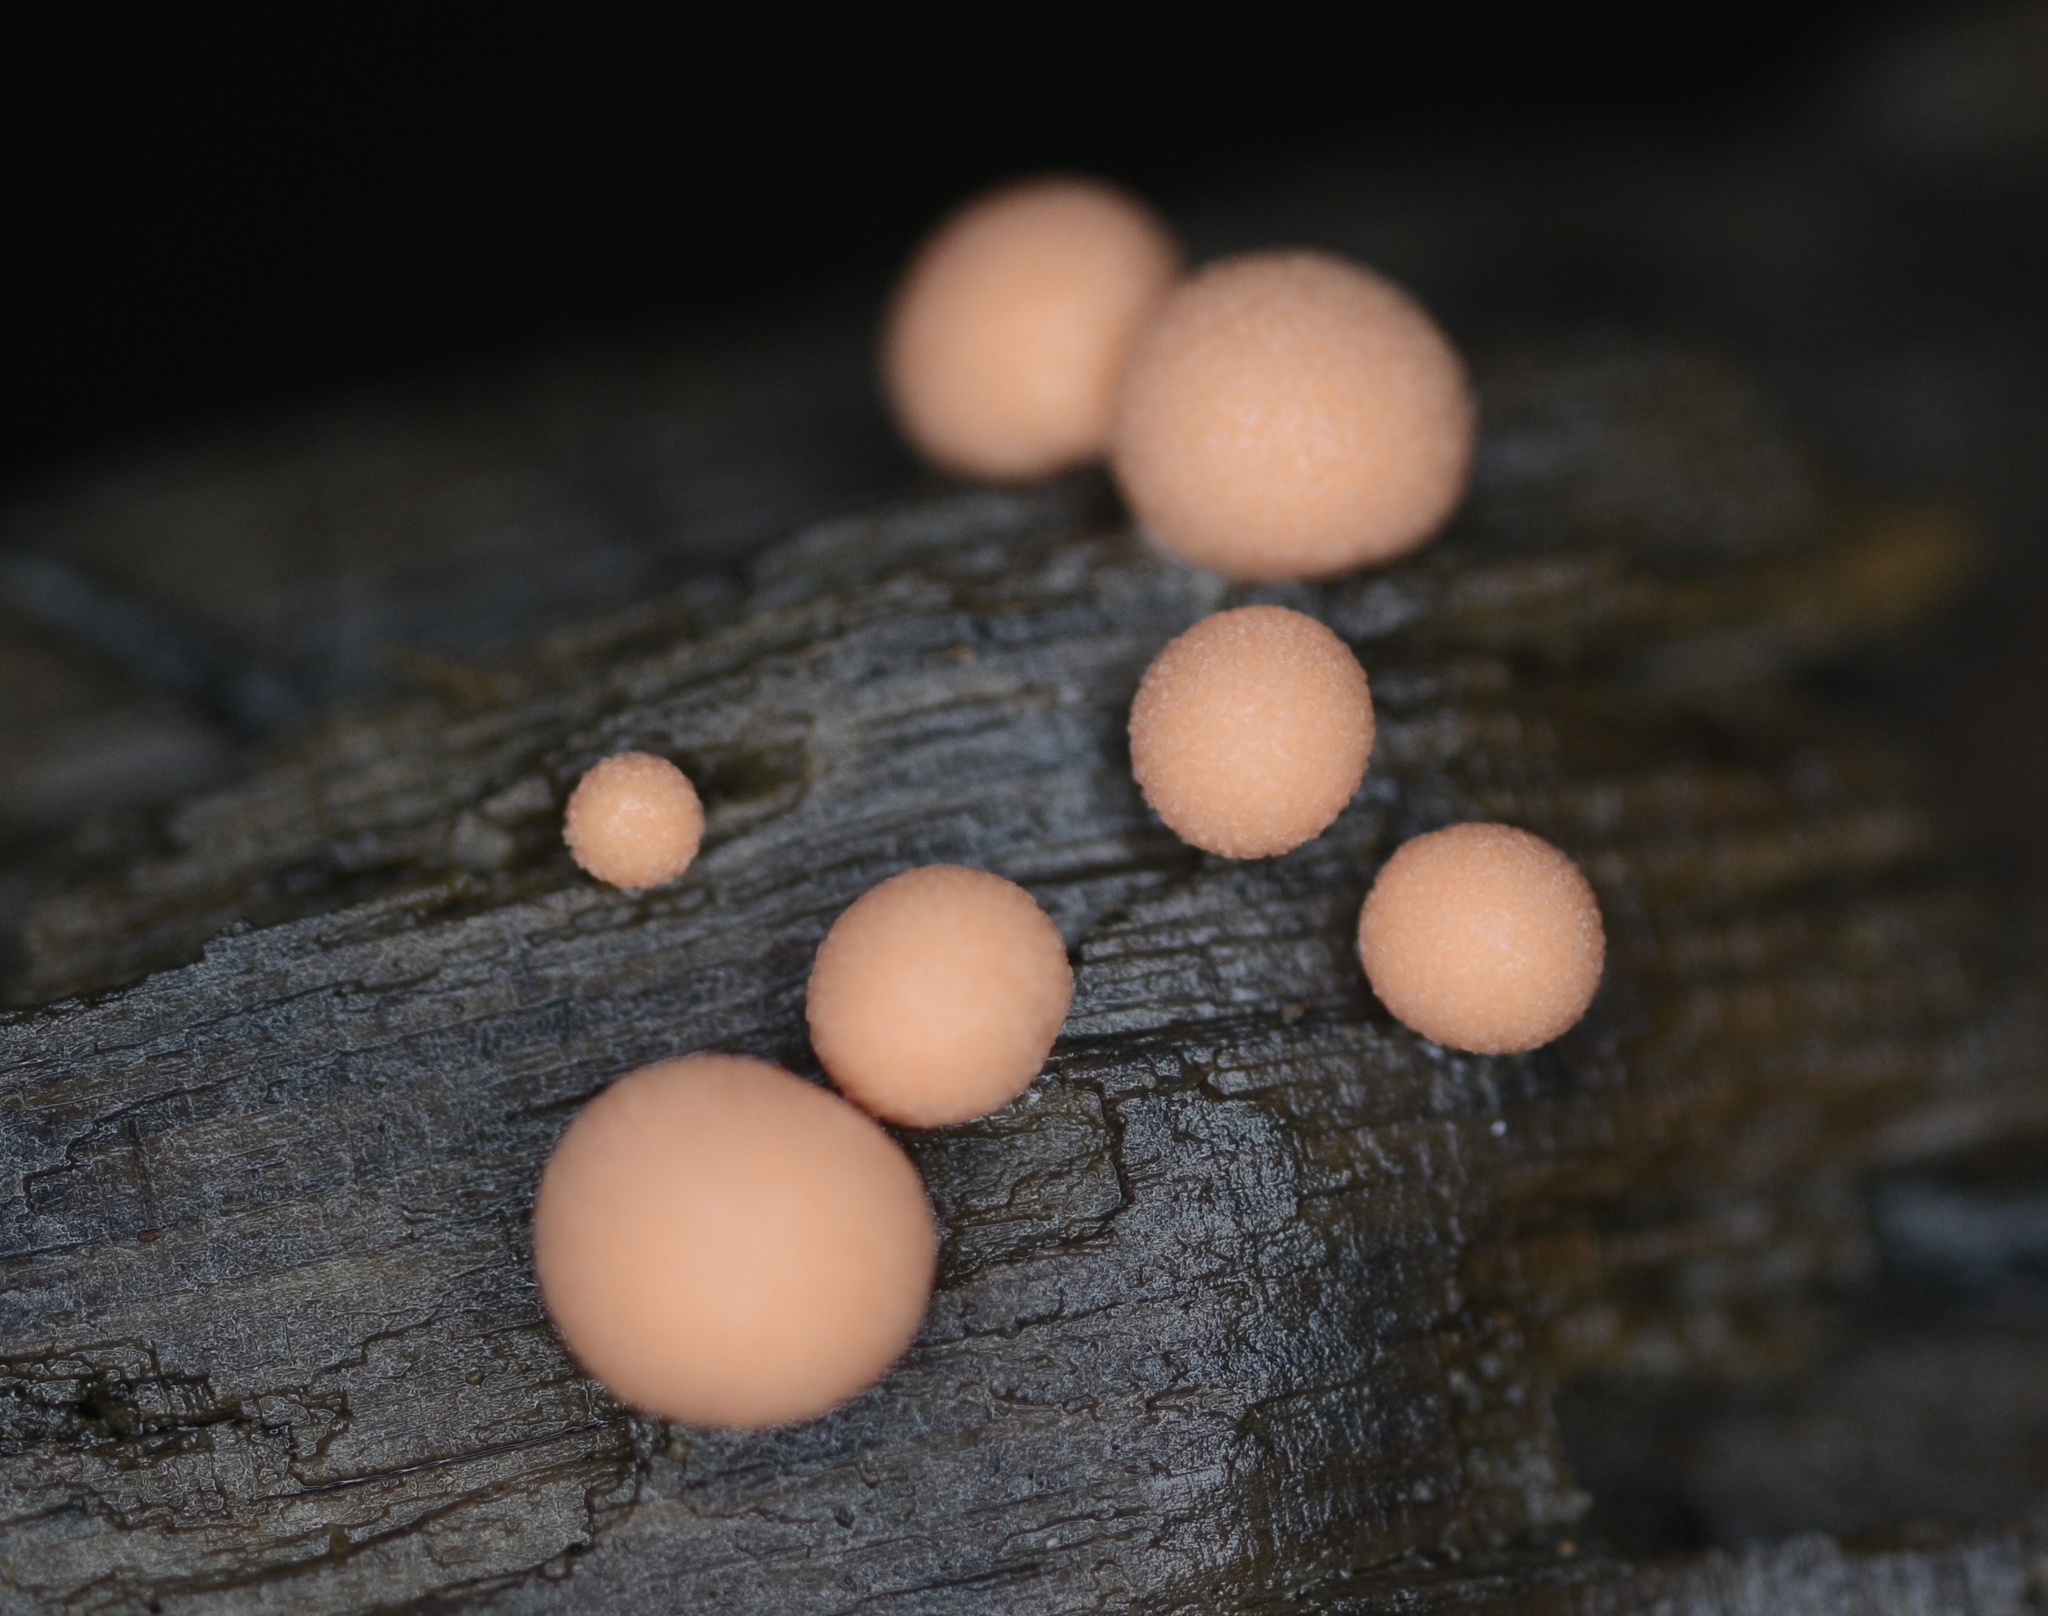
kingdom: Protozoa
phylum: Mycetozoa
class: Myxomycetes
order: Cribrariales
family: Tubiferaceae
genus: Lycogala
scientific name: Lycogala epidendrum
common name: Wolf's milk
